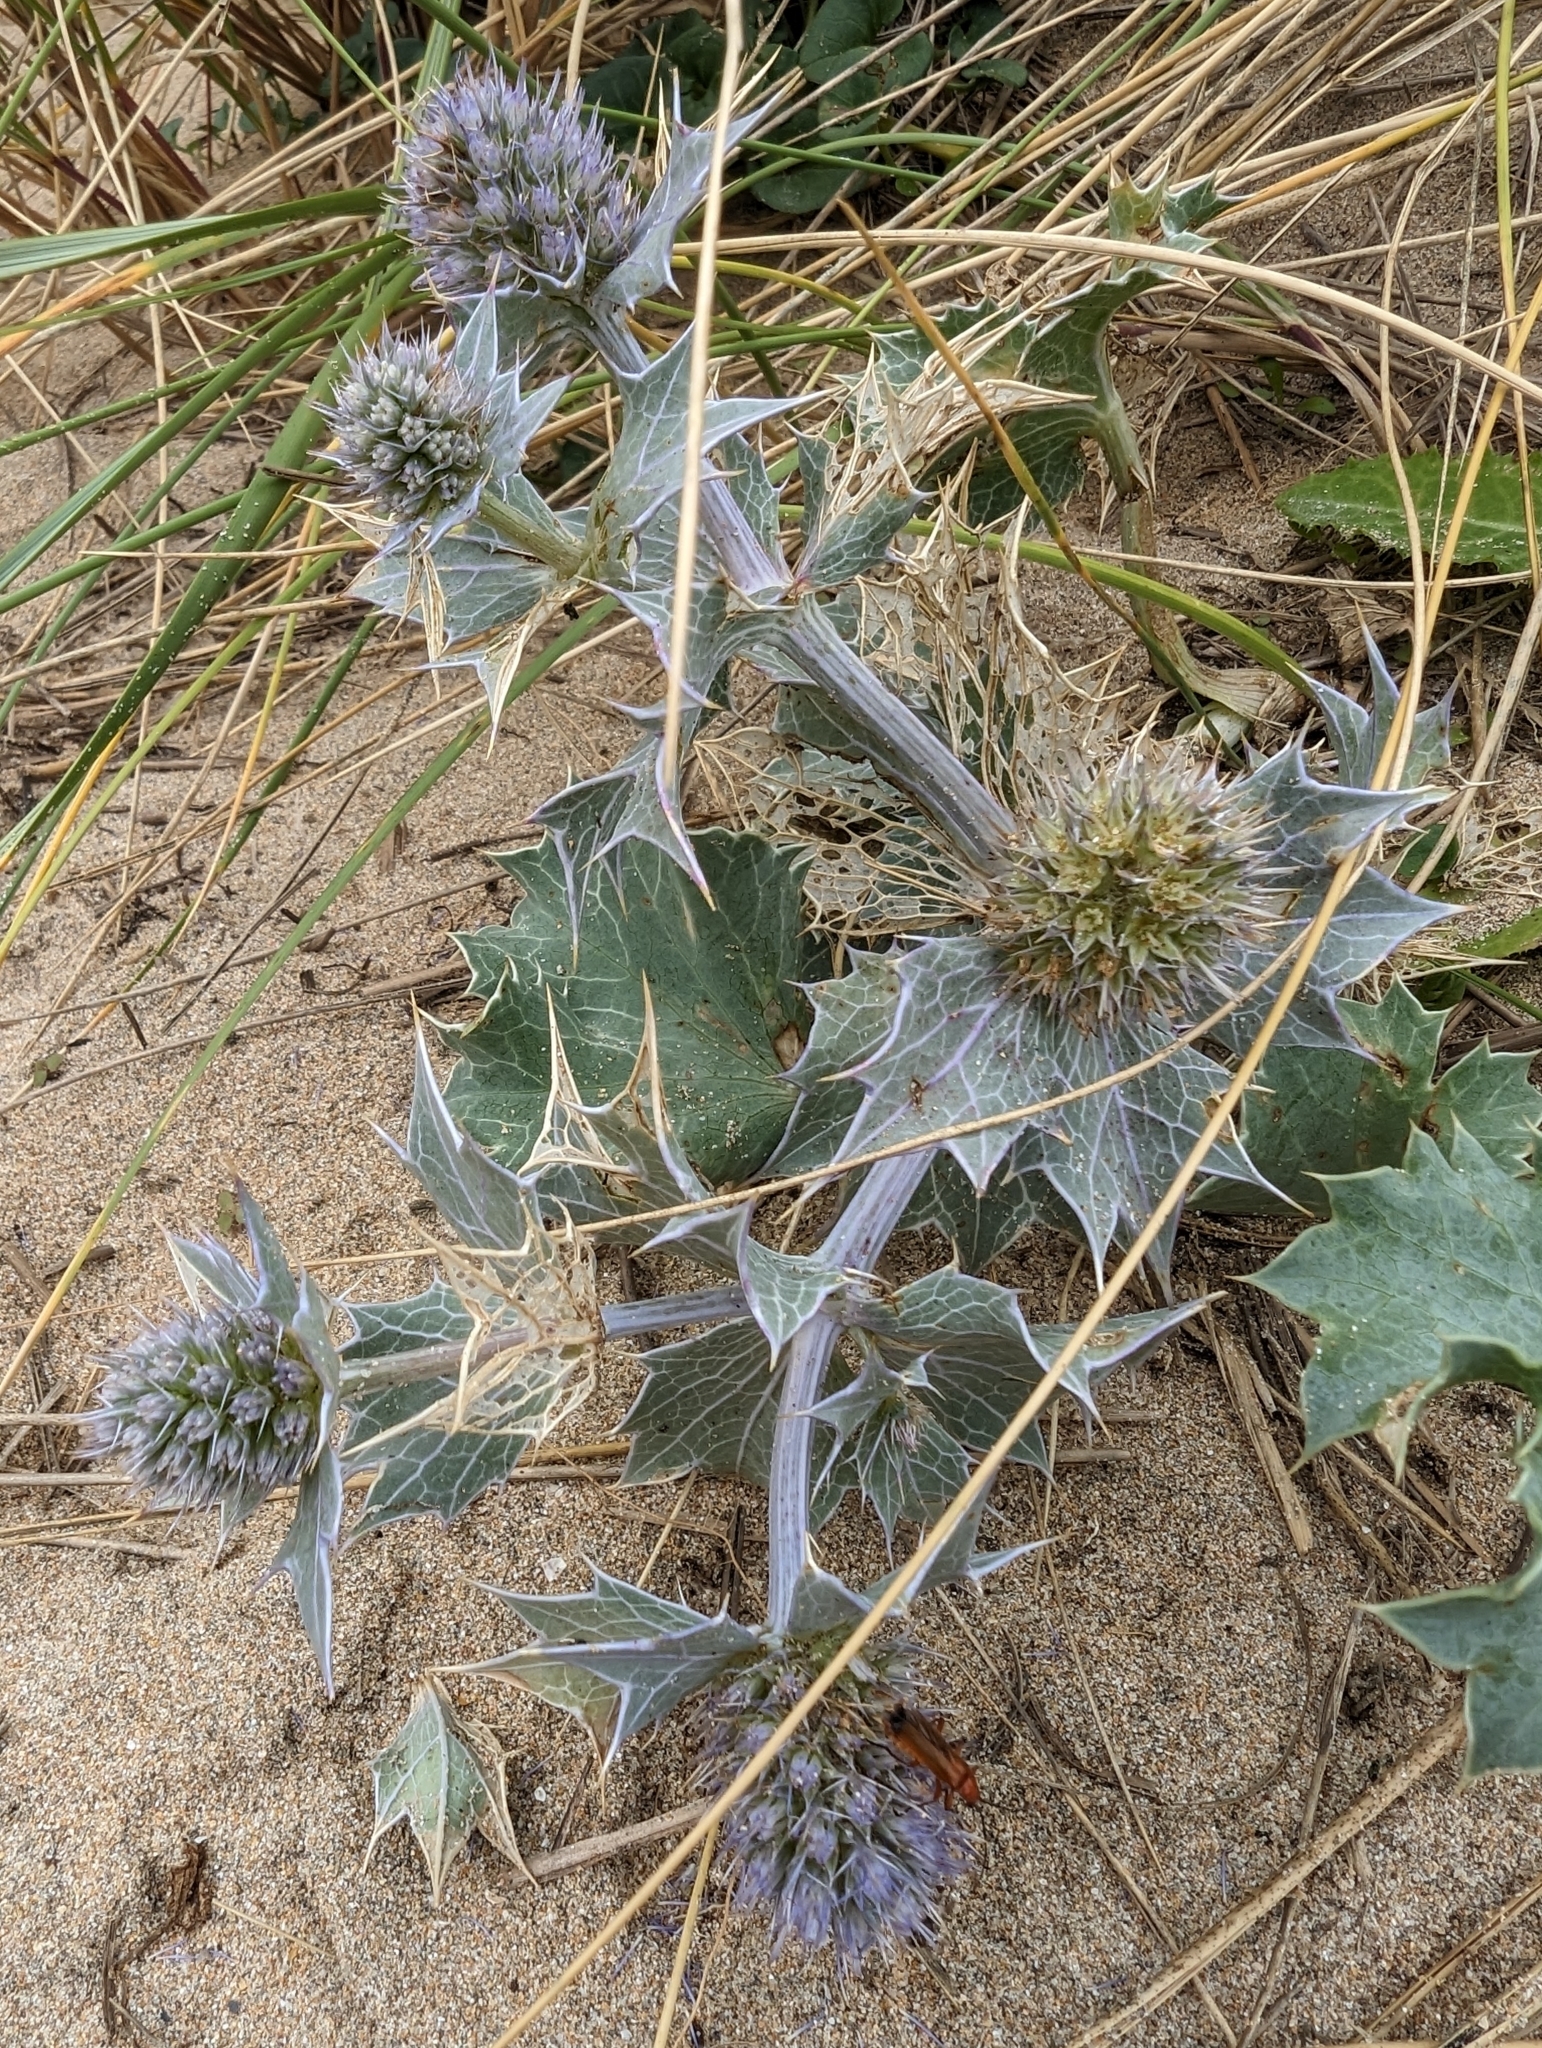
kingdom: Plantae
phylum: Tracheophyta
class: Magnoliopsida
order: Apiales
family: Apiaceae
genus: Eryngium
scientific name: Eryngium maritimum
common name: Sea-holly
